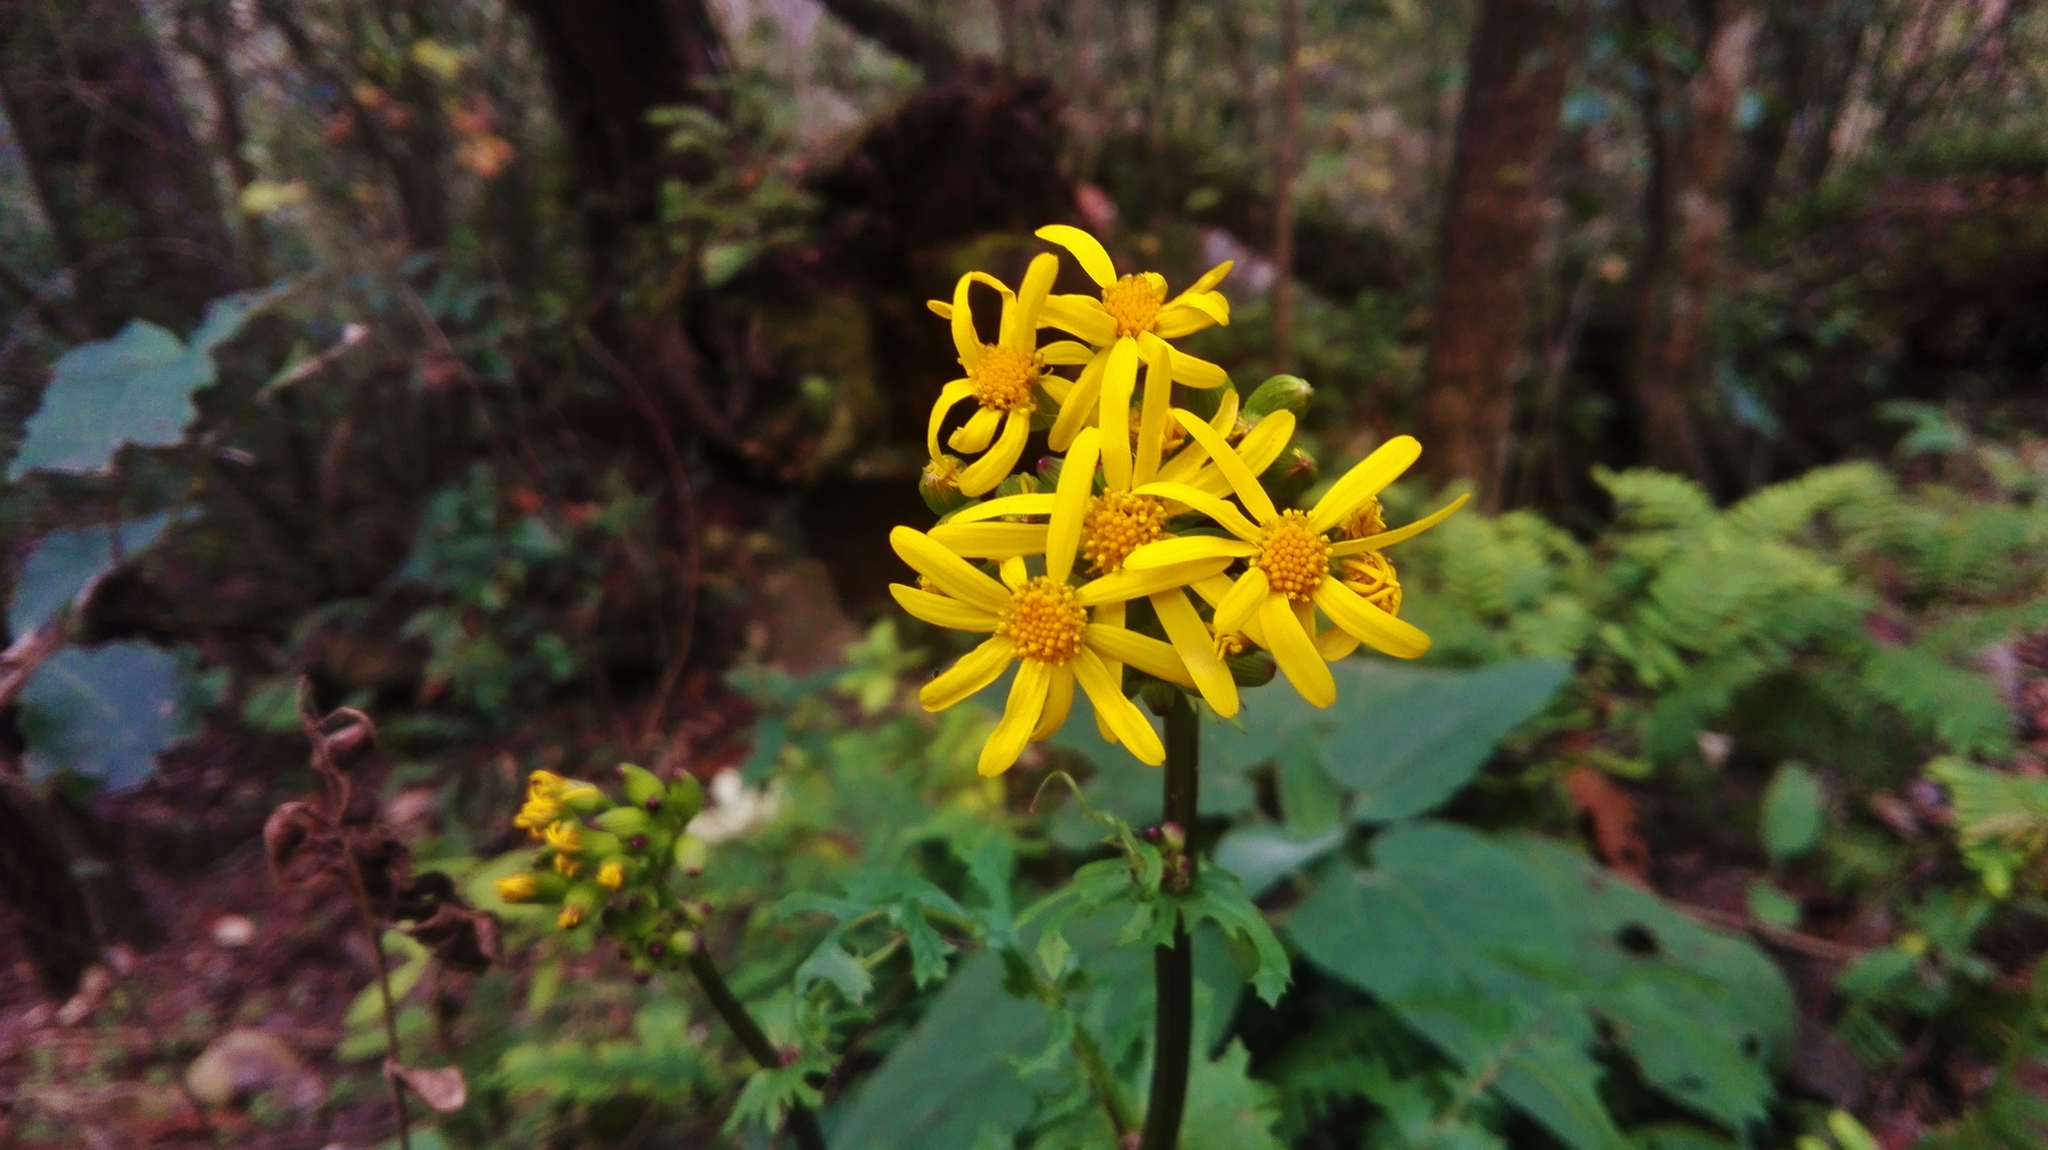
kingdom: Plantae
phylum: Tracheophyta
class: Magnoliopsida
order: Asterales
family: Asteraceae
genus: Packera
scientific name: Packera coahuilensis
